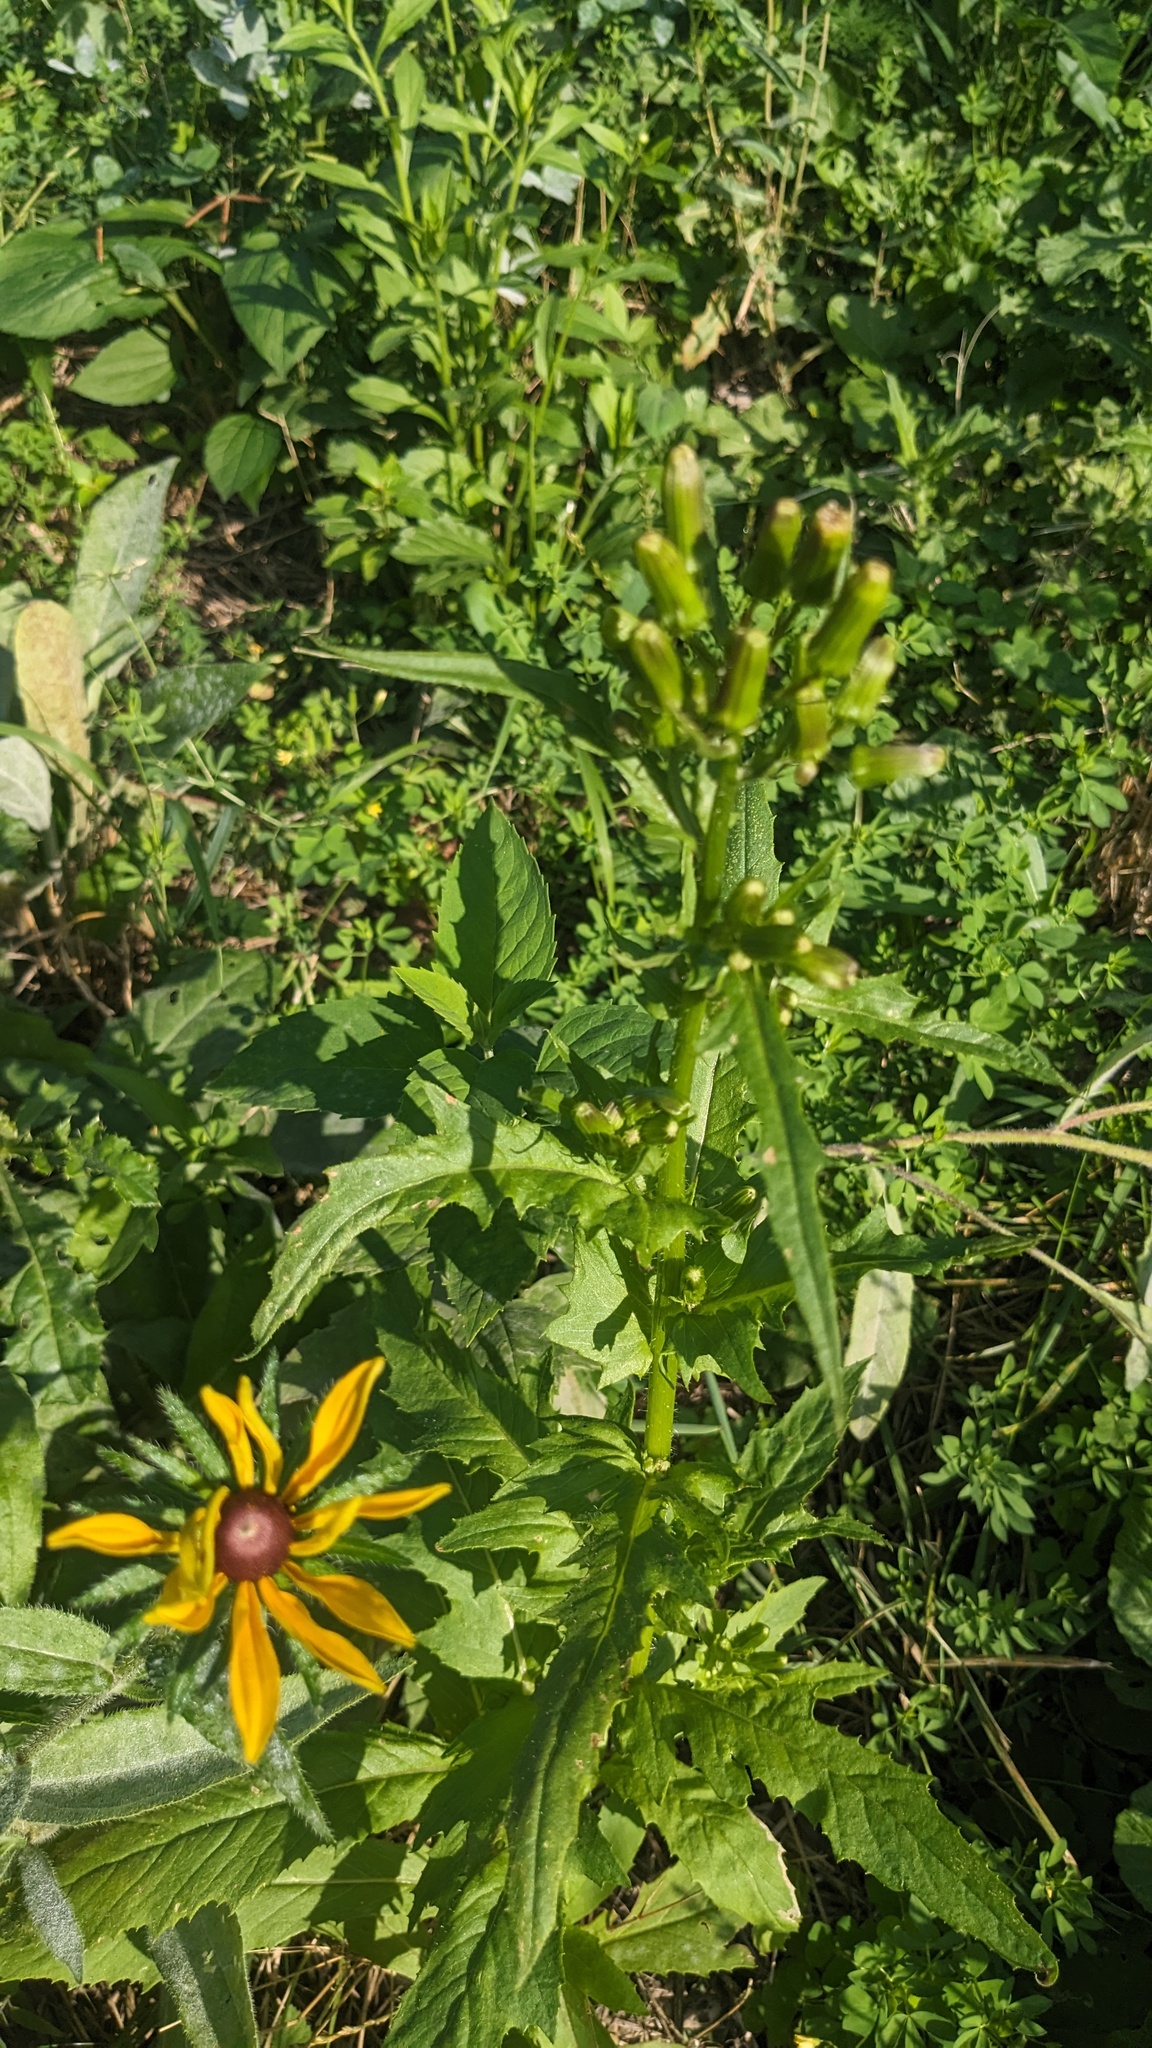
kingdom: Plantae
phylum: Tracheophyta
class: Magnoliopsida
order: Asterales
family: Asteraceae
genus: Erechtites
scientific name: Erechtites hieraciifolius
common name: American burnweed
